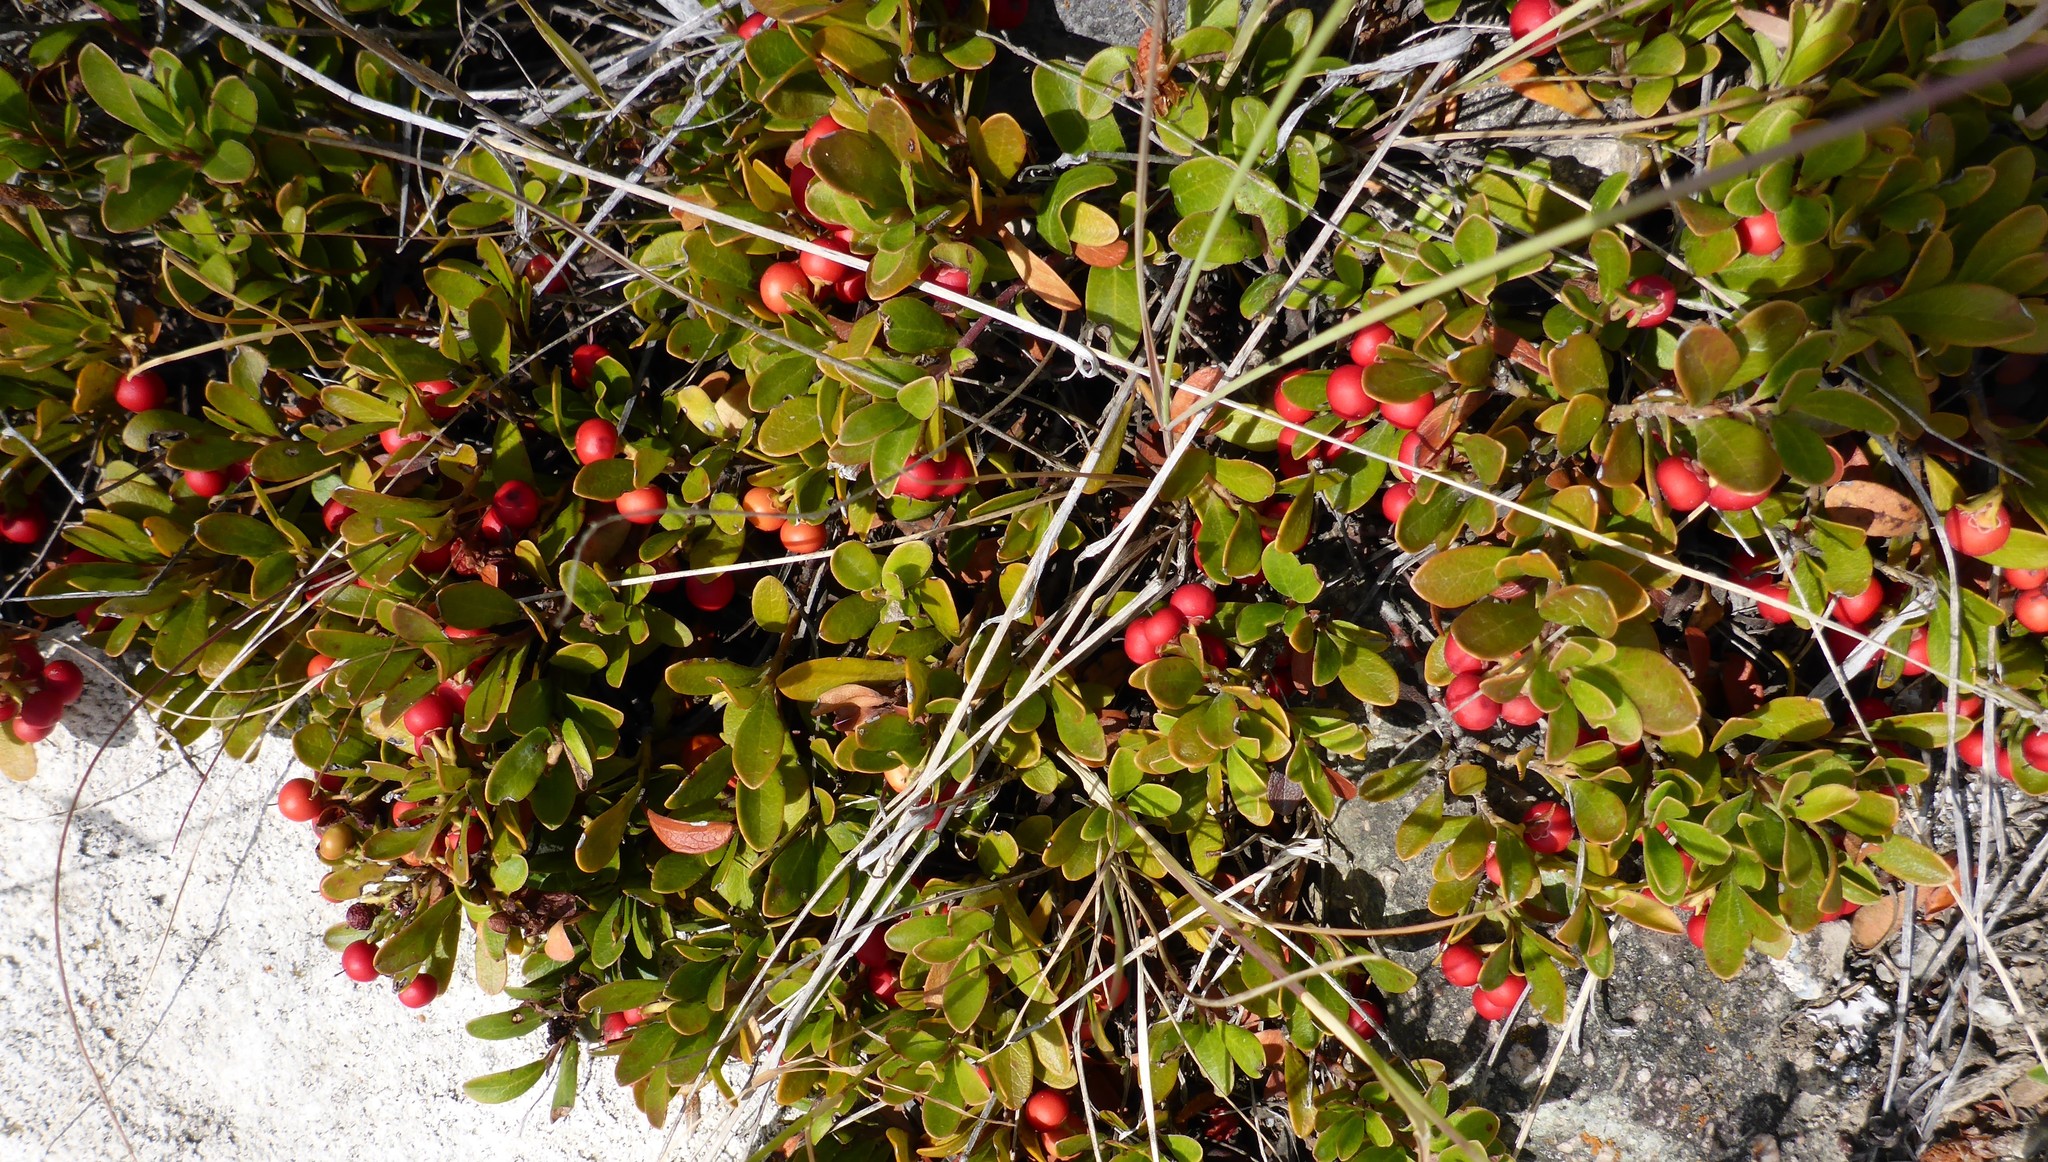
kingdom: Plantae
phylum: Tracheophyta
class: Magnoliopsida
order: Ericales
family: Ericaceae
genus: Arctostaphylos
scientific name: Arctostaphylos uva-ursi
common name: Bearberry
